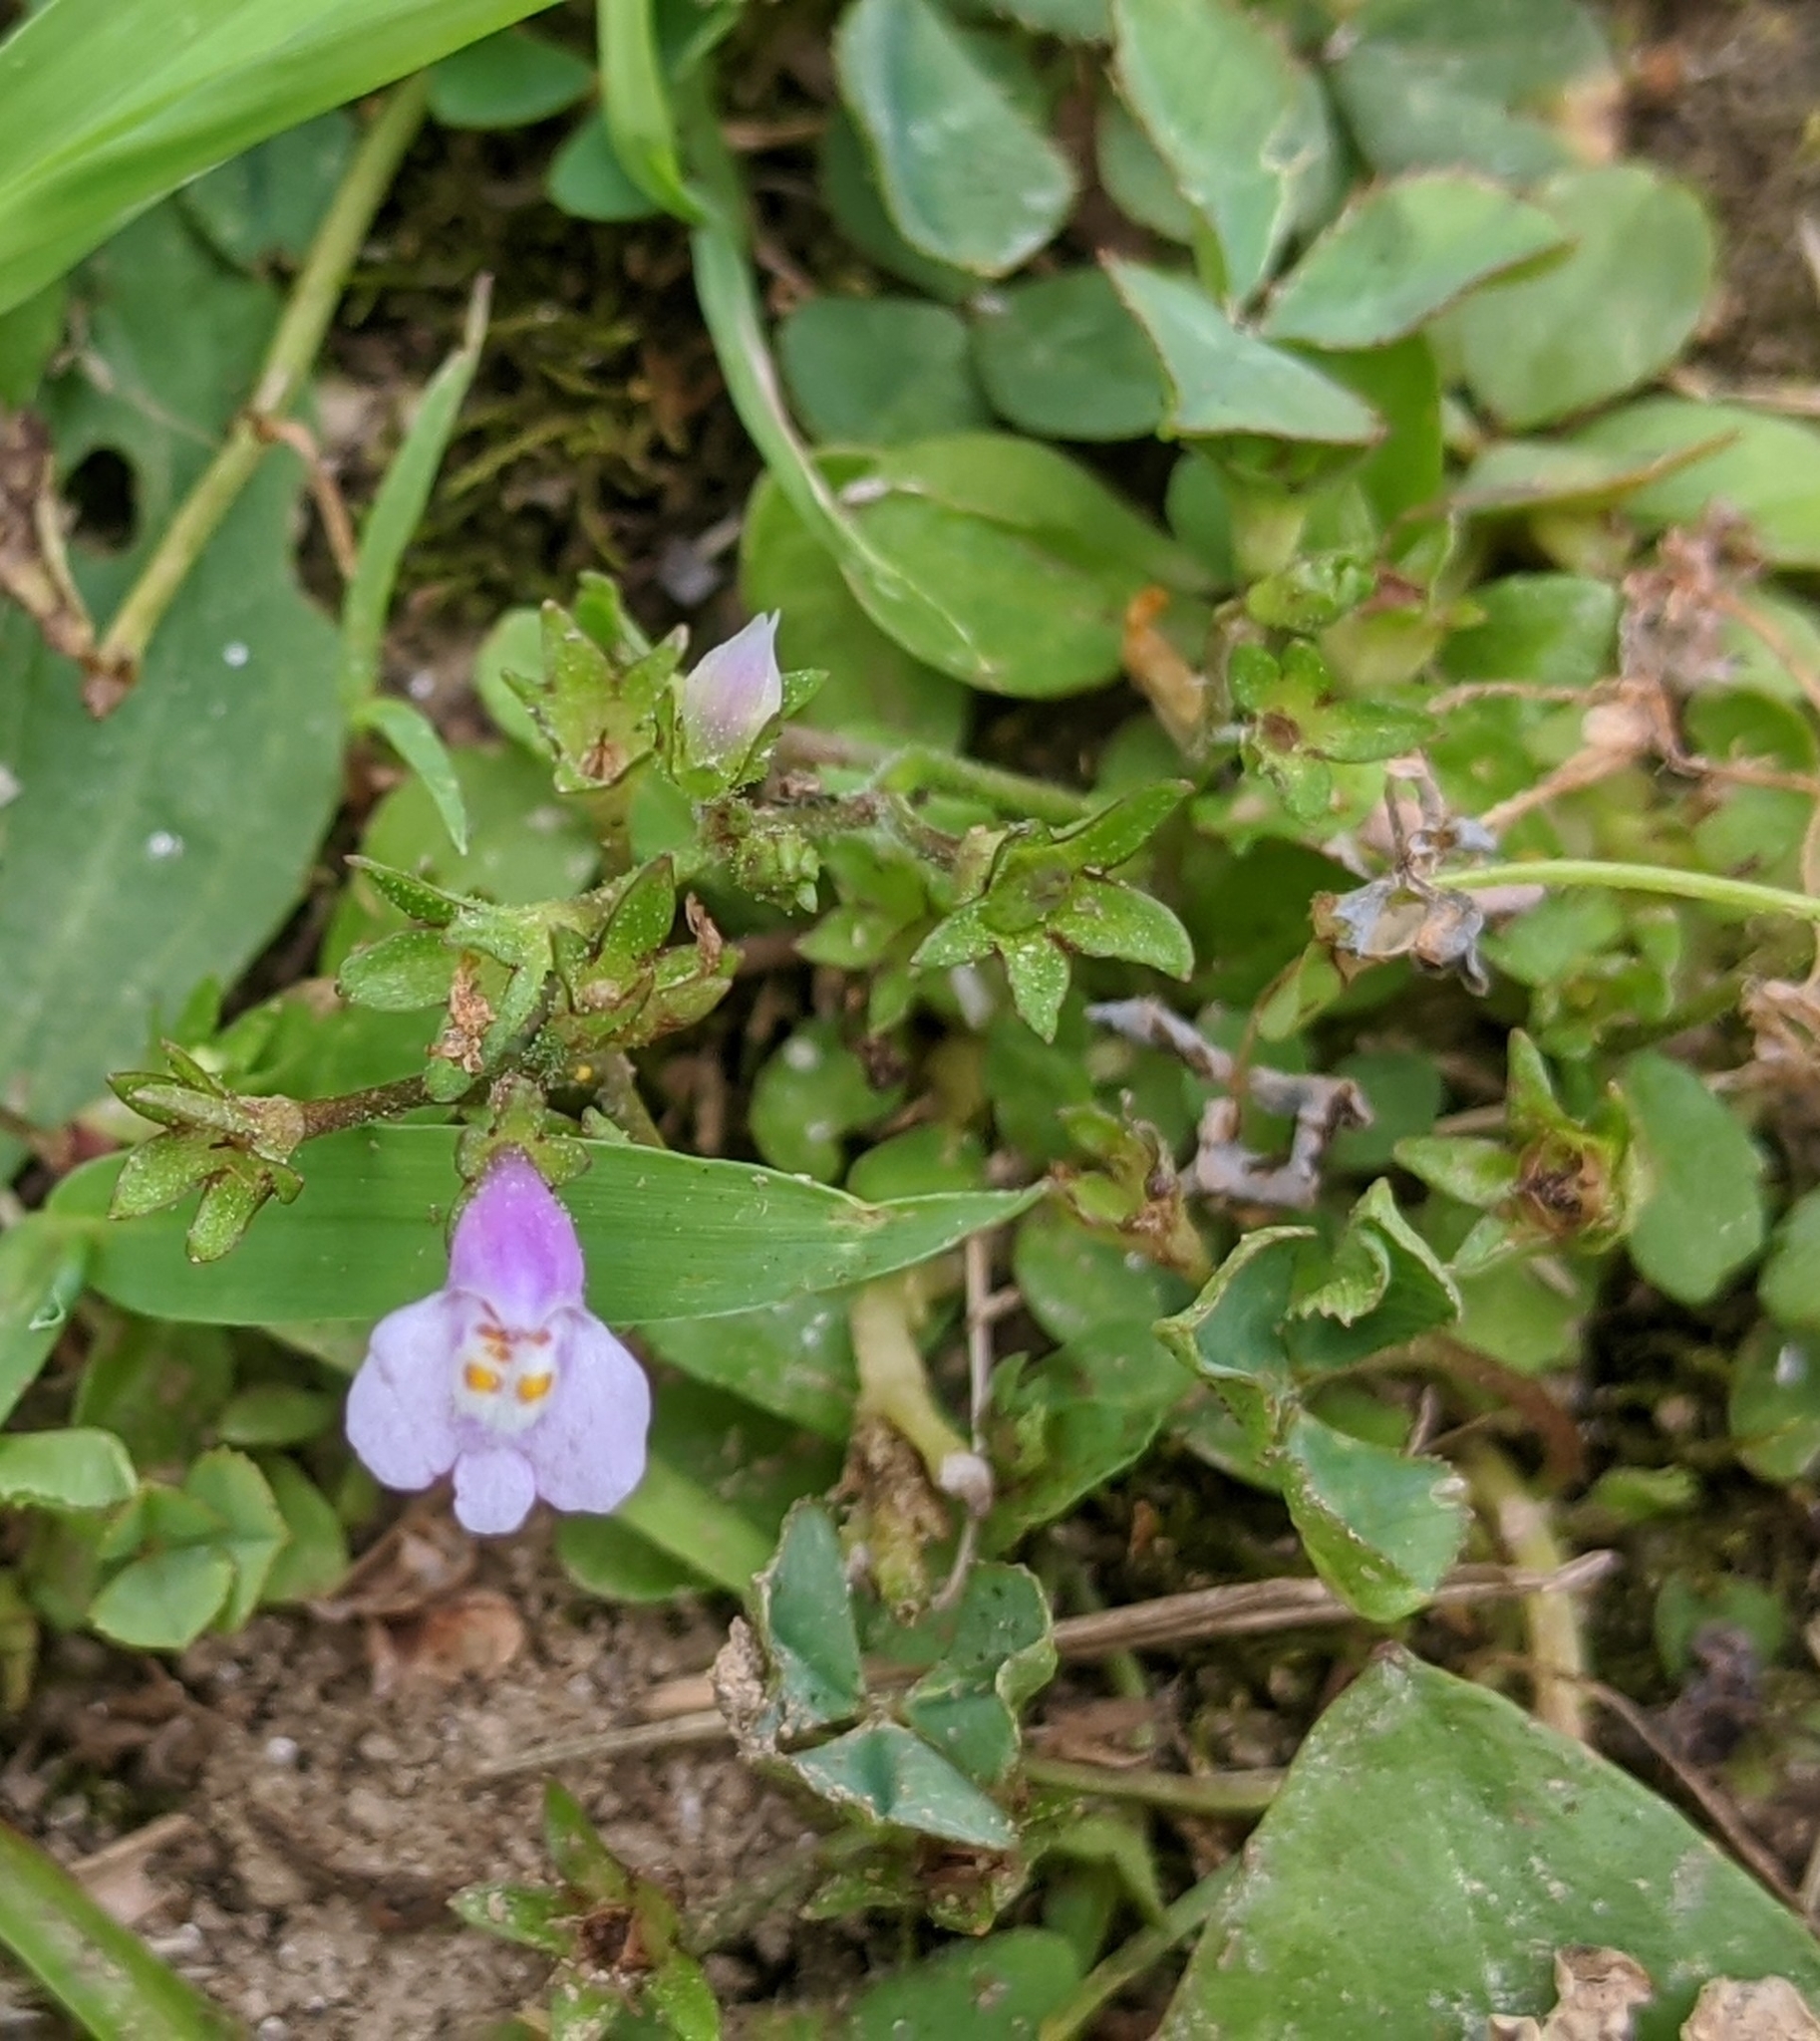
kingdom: Plantae
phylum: Tracheophyta
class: Magnoliopsida
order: Lamiales
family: Mazaceae
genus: Mazus
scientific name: Mazus pumilus
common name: Japanese mazus
